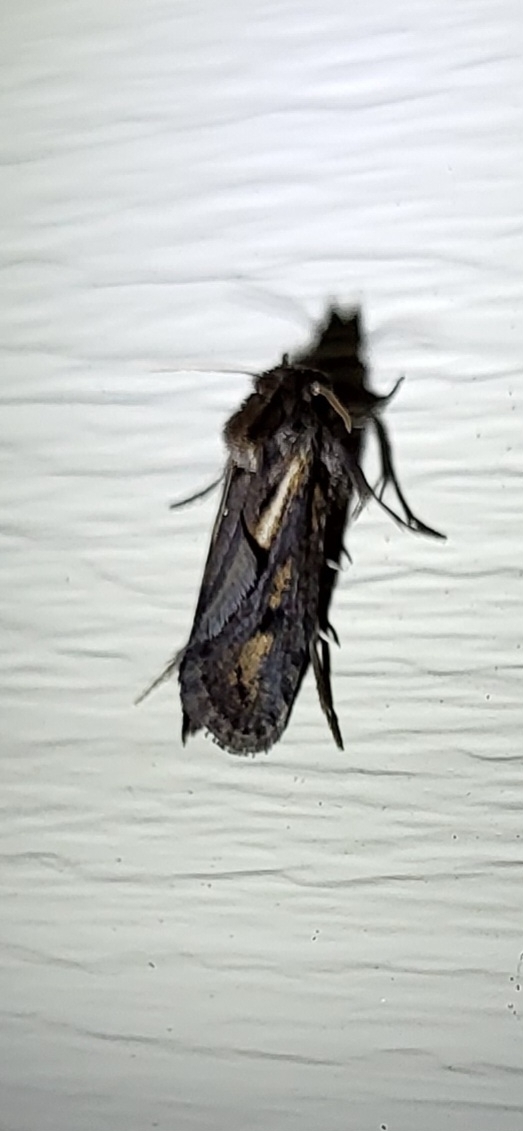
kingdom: Animalia
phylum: Arthropoda
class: Insecta
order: Lepidoptera
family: Tineidae
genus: Acrolophus
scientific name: Acrolophus popeanella
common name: Clemens' grass tubeworm moth
